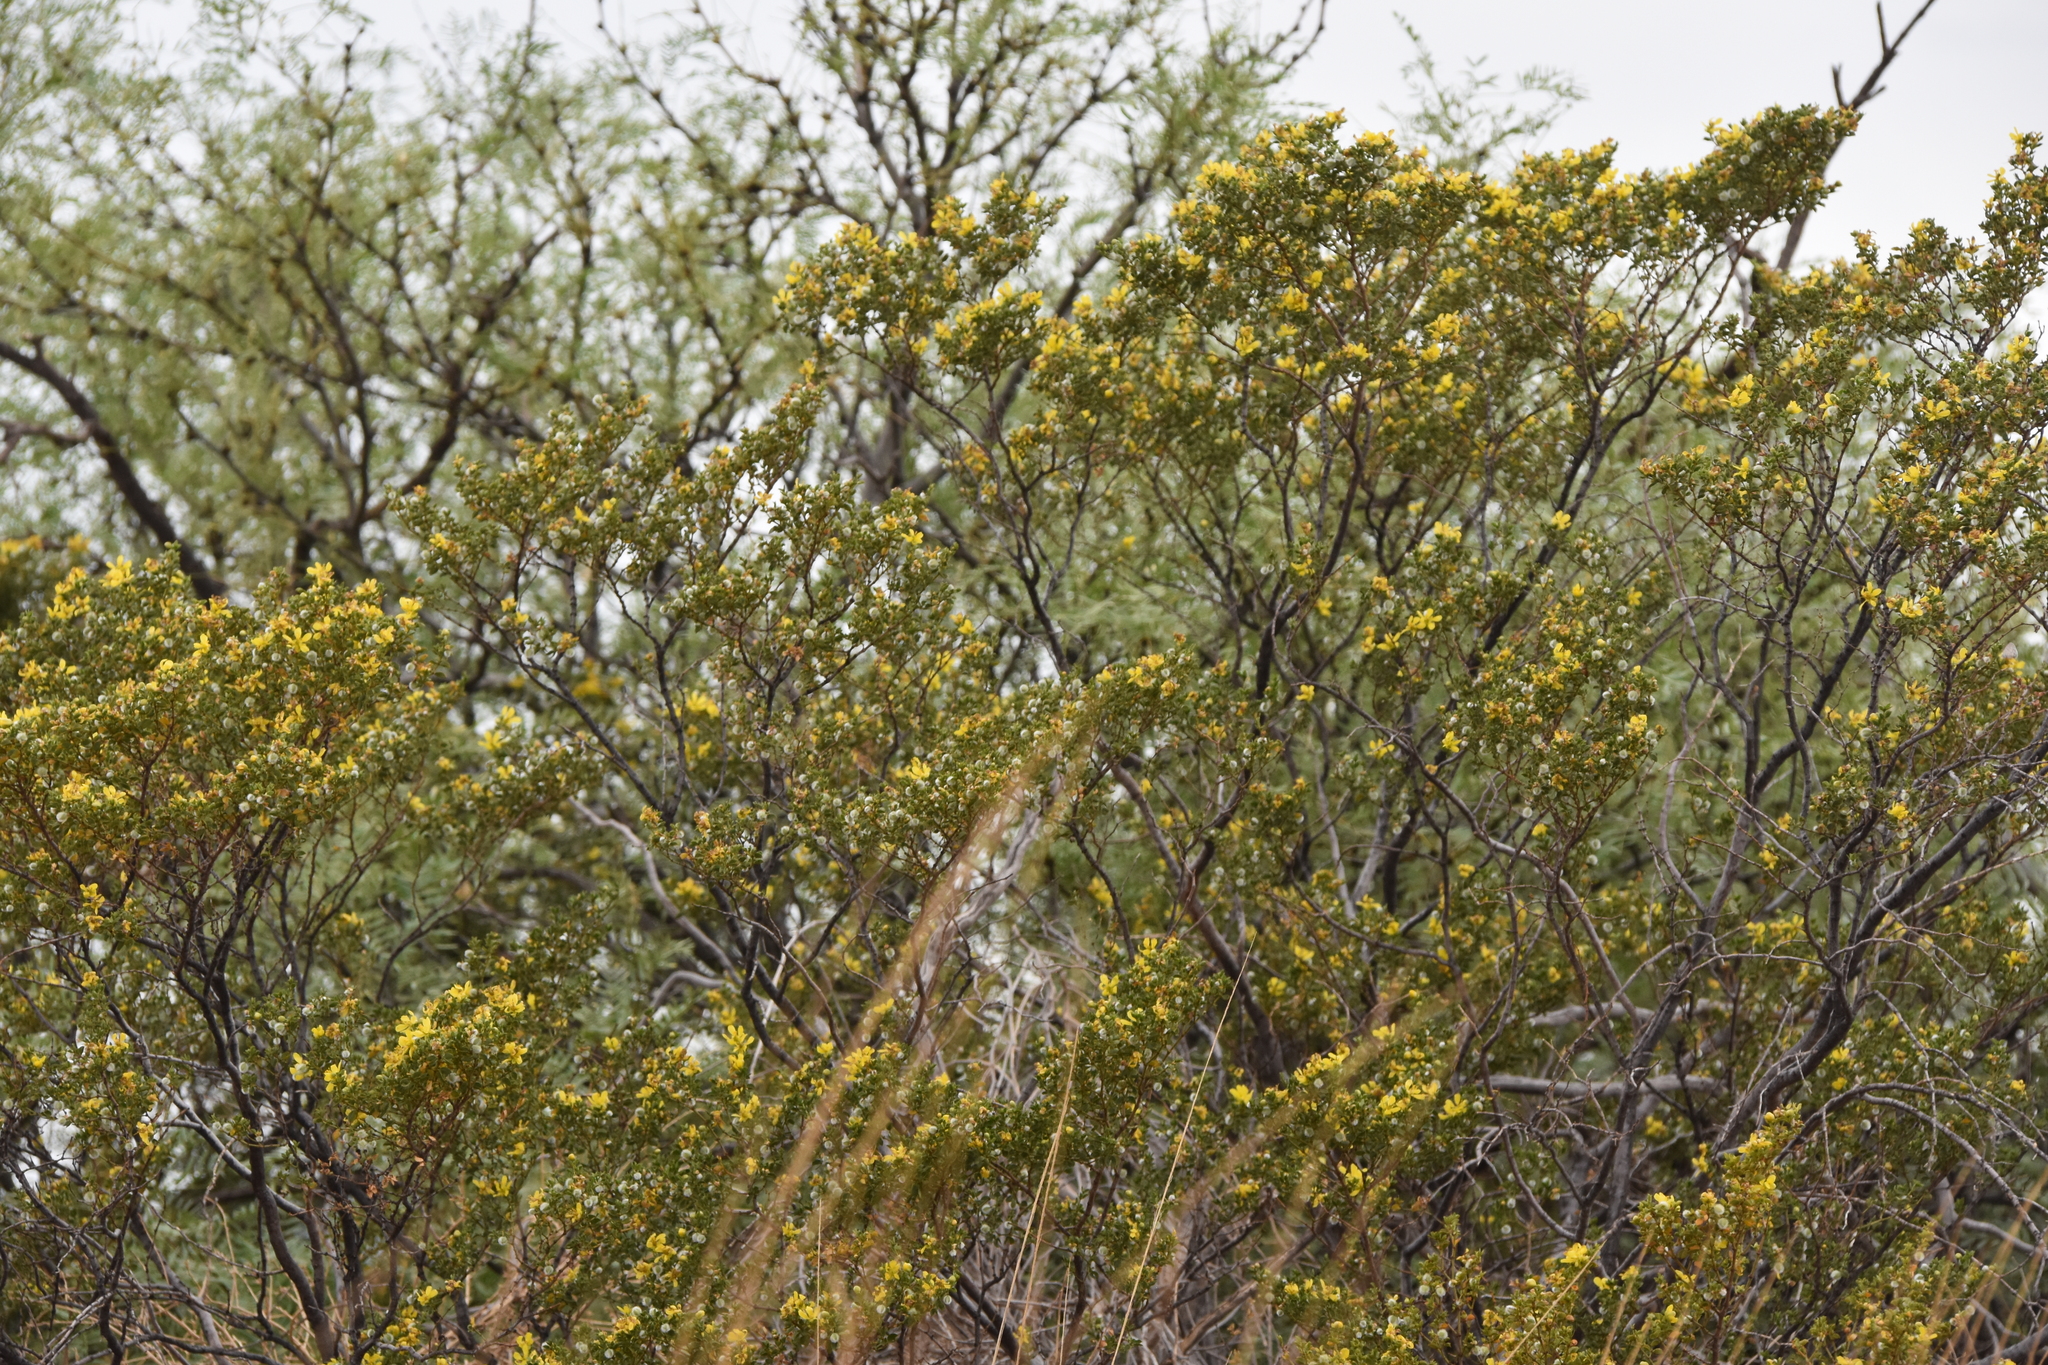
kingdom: Plantae
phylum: Tracheophyta
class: Magnoliopsida
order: Zygophyllales
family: Zygophyllaceae
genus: Larrea
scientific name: Larrea tridentata
